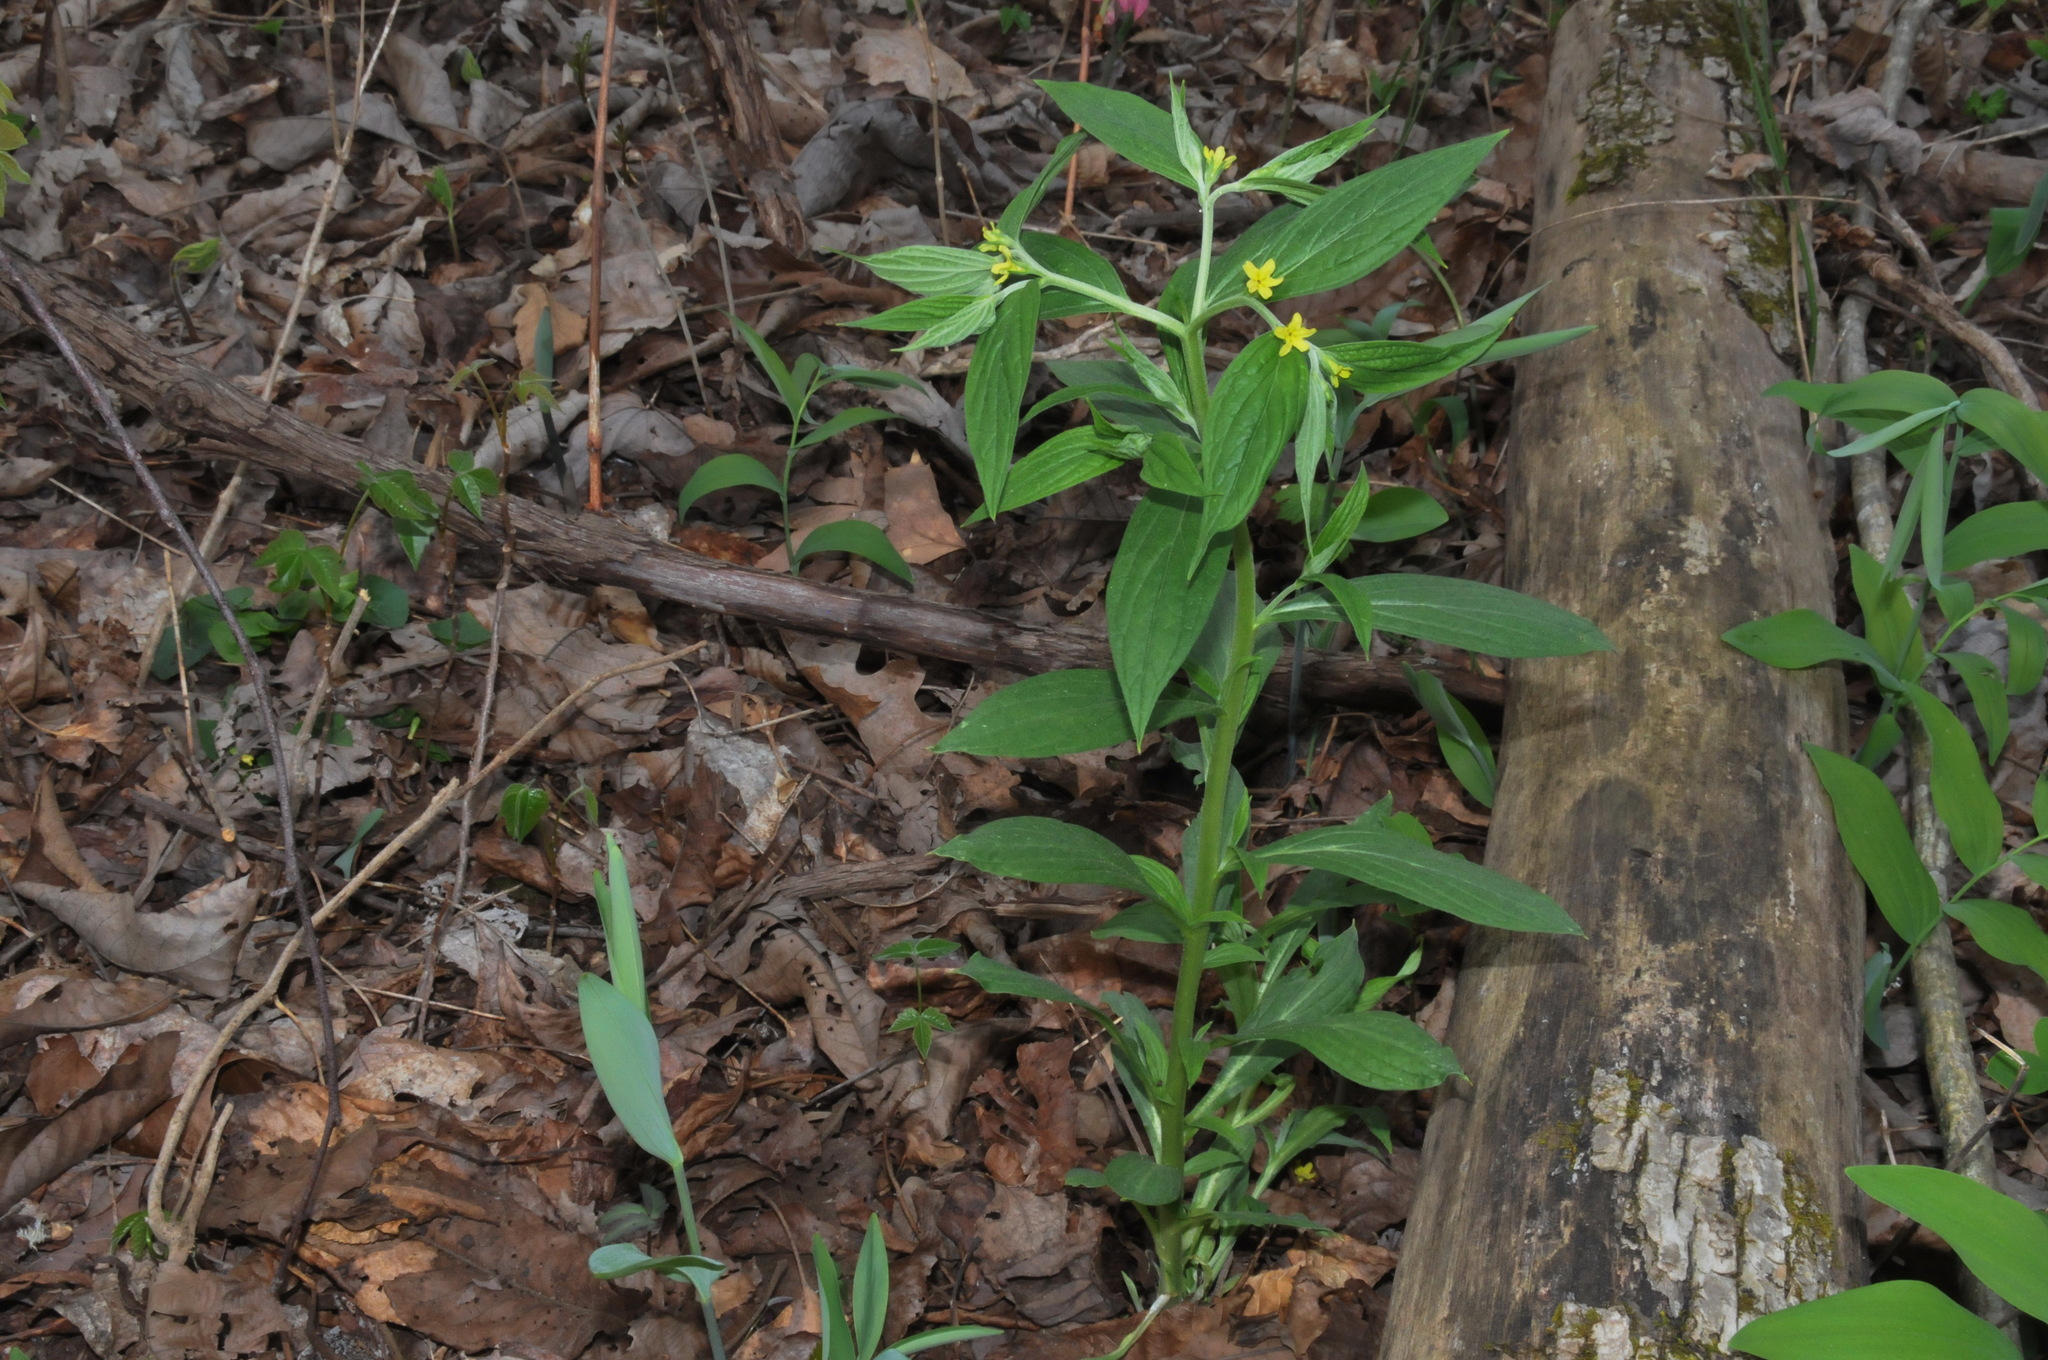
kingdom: Plantae
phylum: Tracheophyta
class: Magnoliopsida
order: Boraginales
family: Boraginaceae
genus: Lithospermum
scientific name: Lithospermum latifolium
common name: American gromwell
